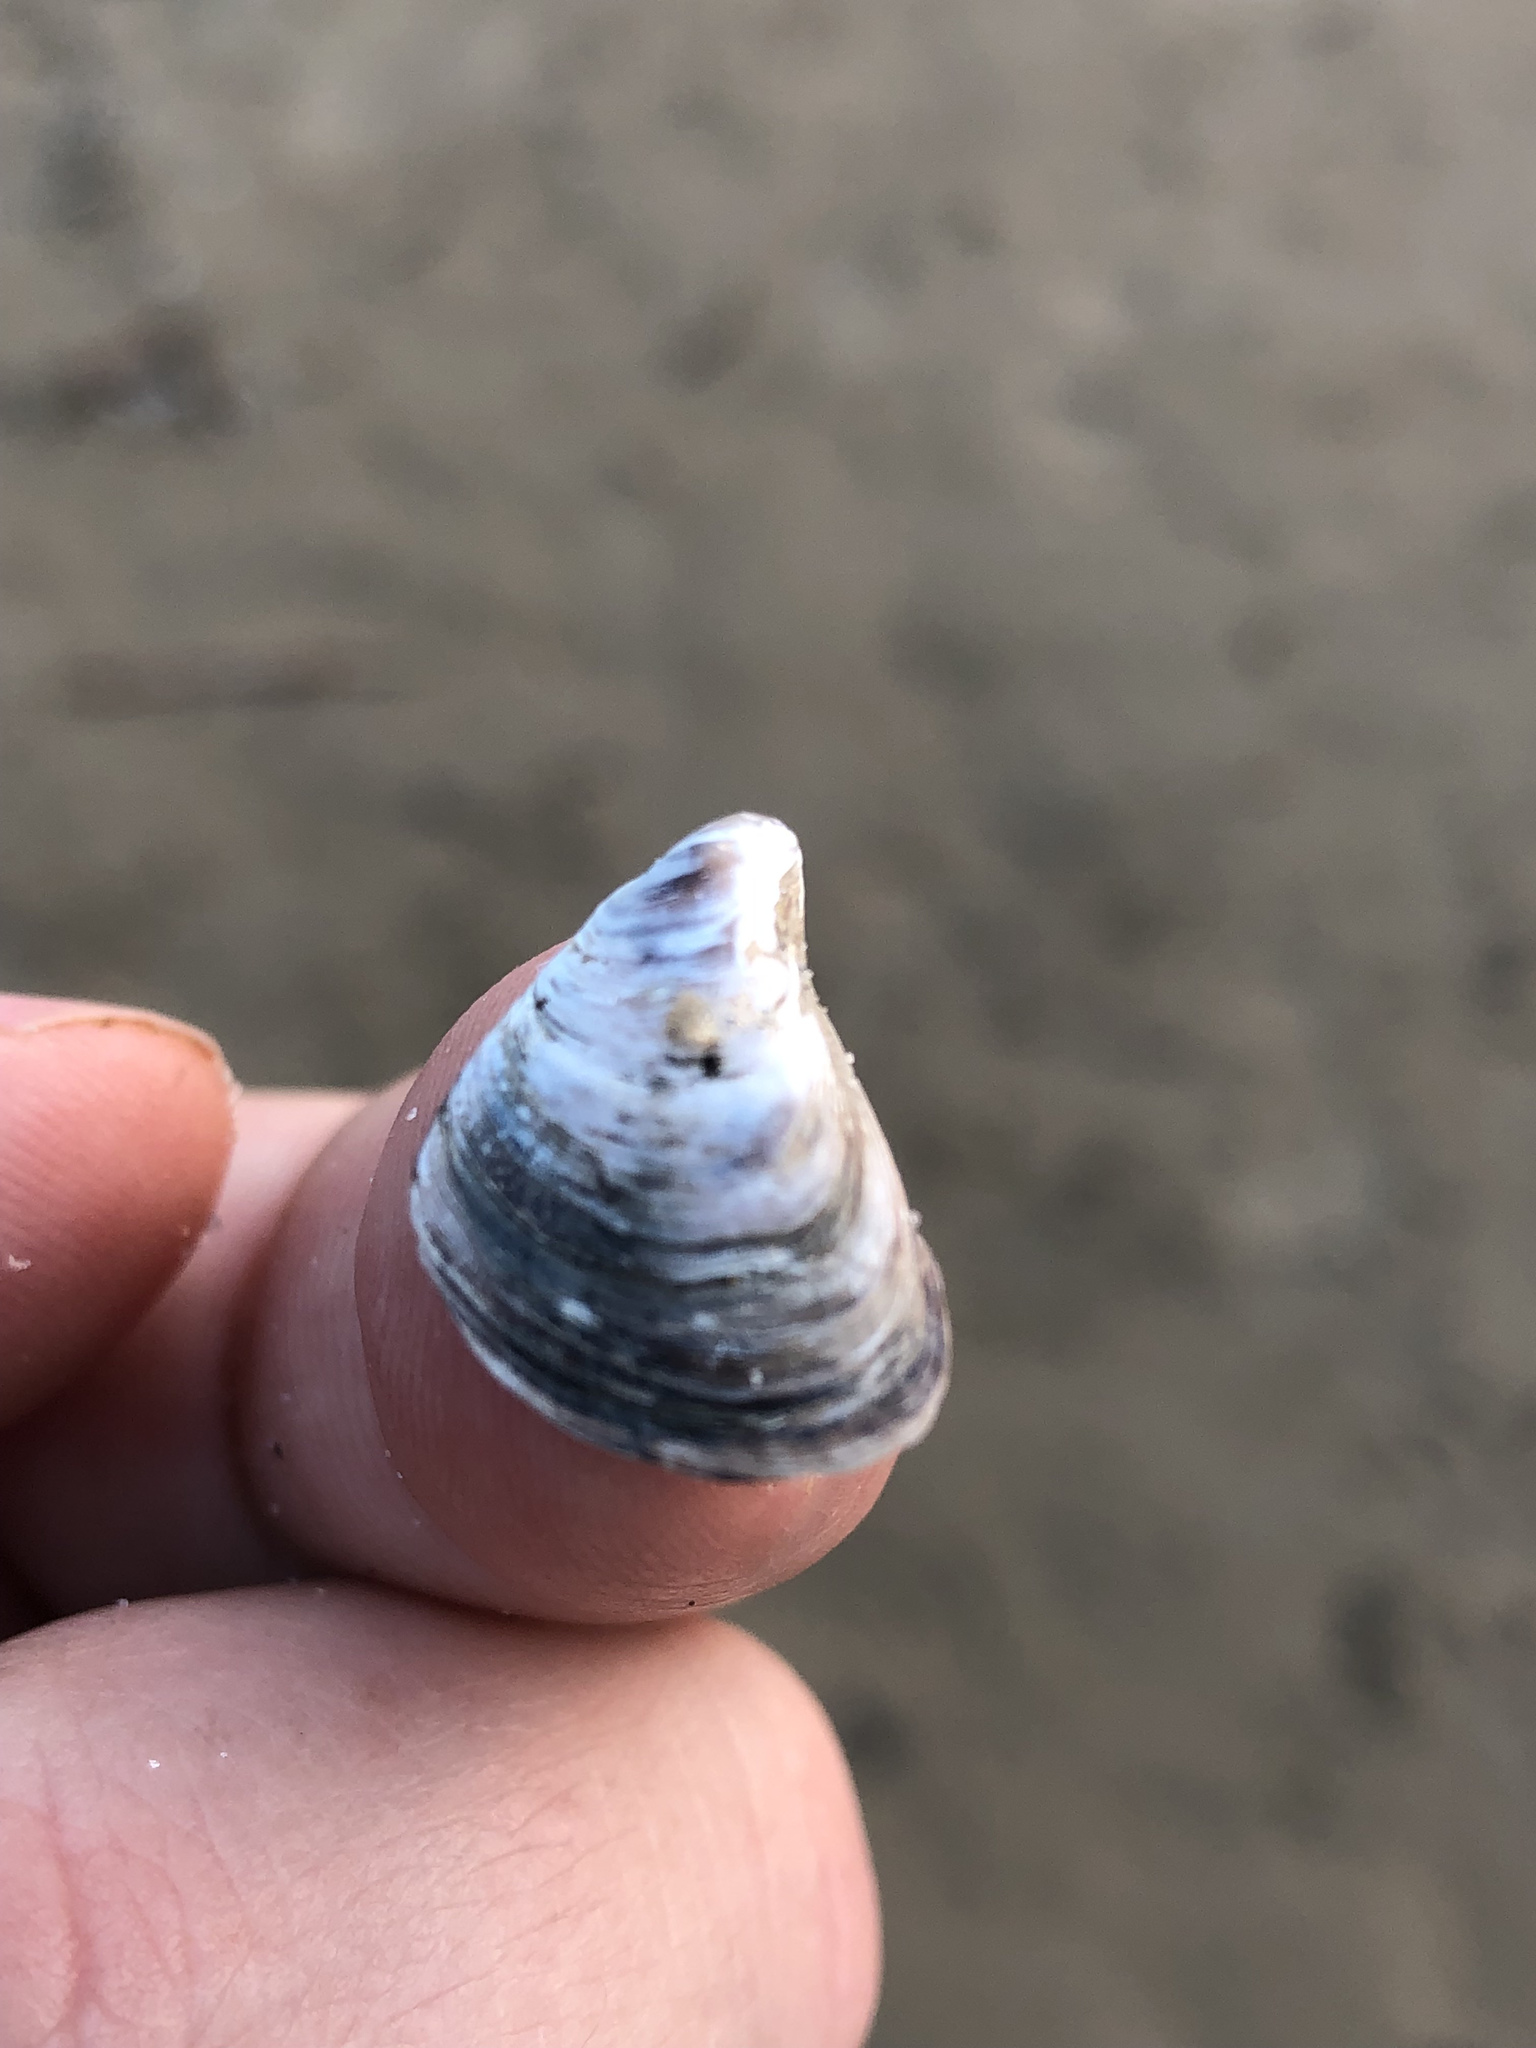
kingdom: Animalia
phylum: Mollusca
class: Bivalvia
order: Myida
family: Dreissenidae
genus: Dreissena
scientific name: Dreissena bugensis
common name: Quagga mussel
